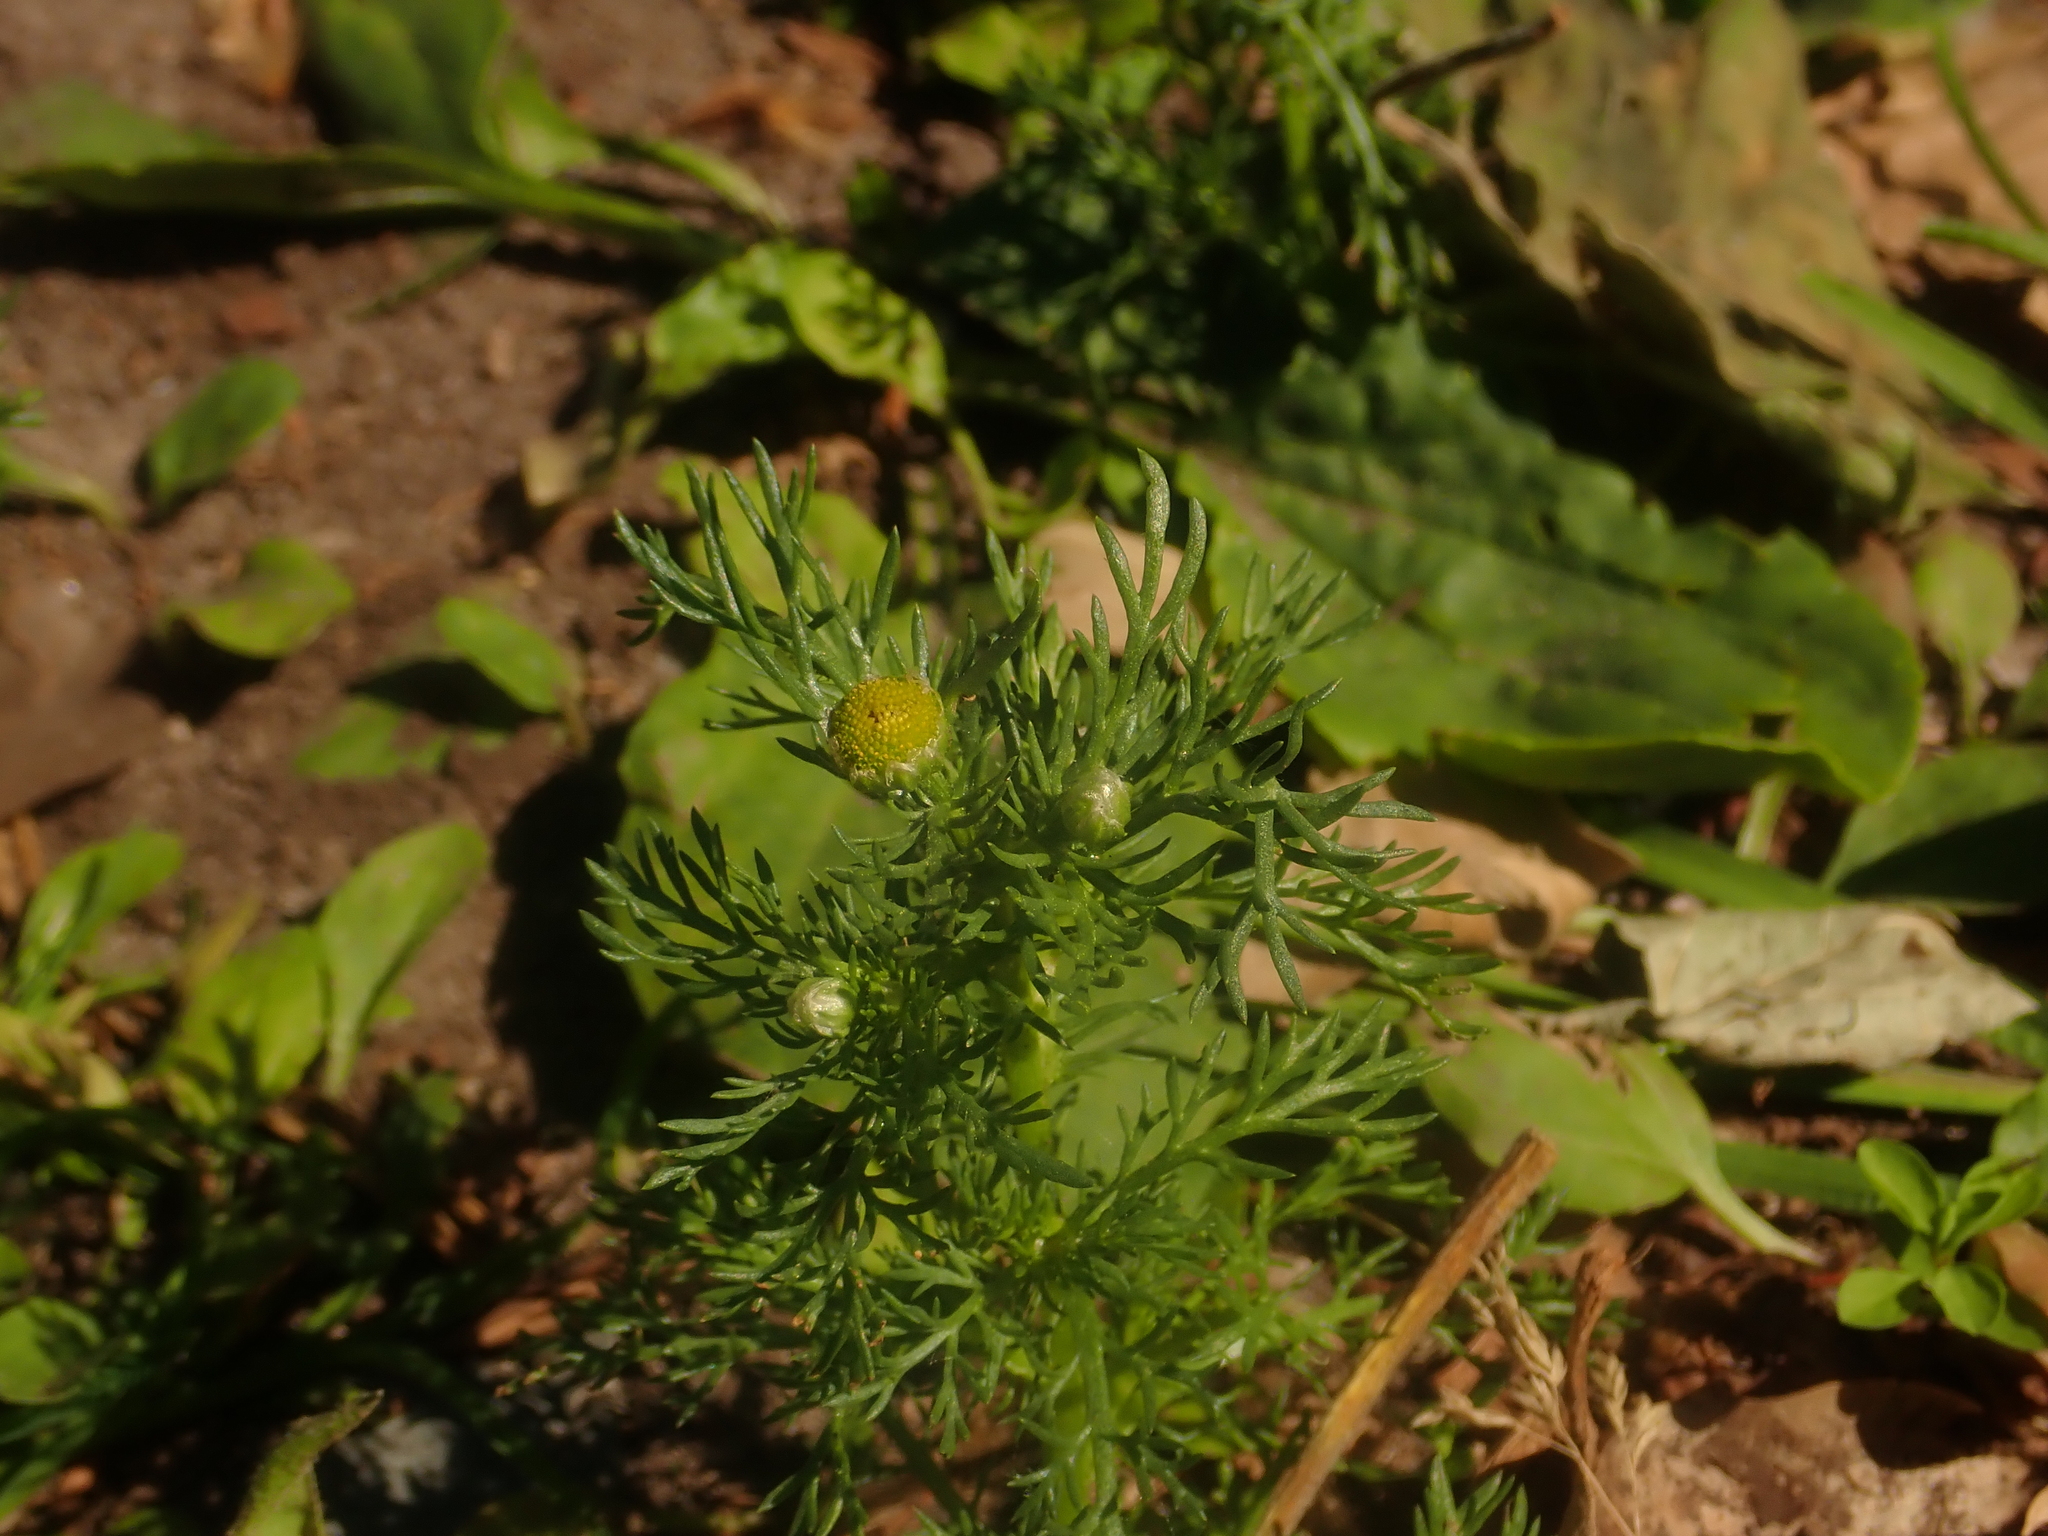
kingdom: Plantae
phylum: Tracheophyta
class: Magnoliopsida
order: Asterales
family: Asteraceae
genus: Matricaria
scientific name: Matricaria discoidea
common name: Disc mayweed
